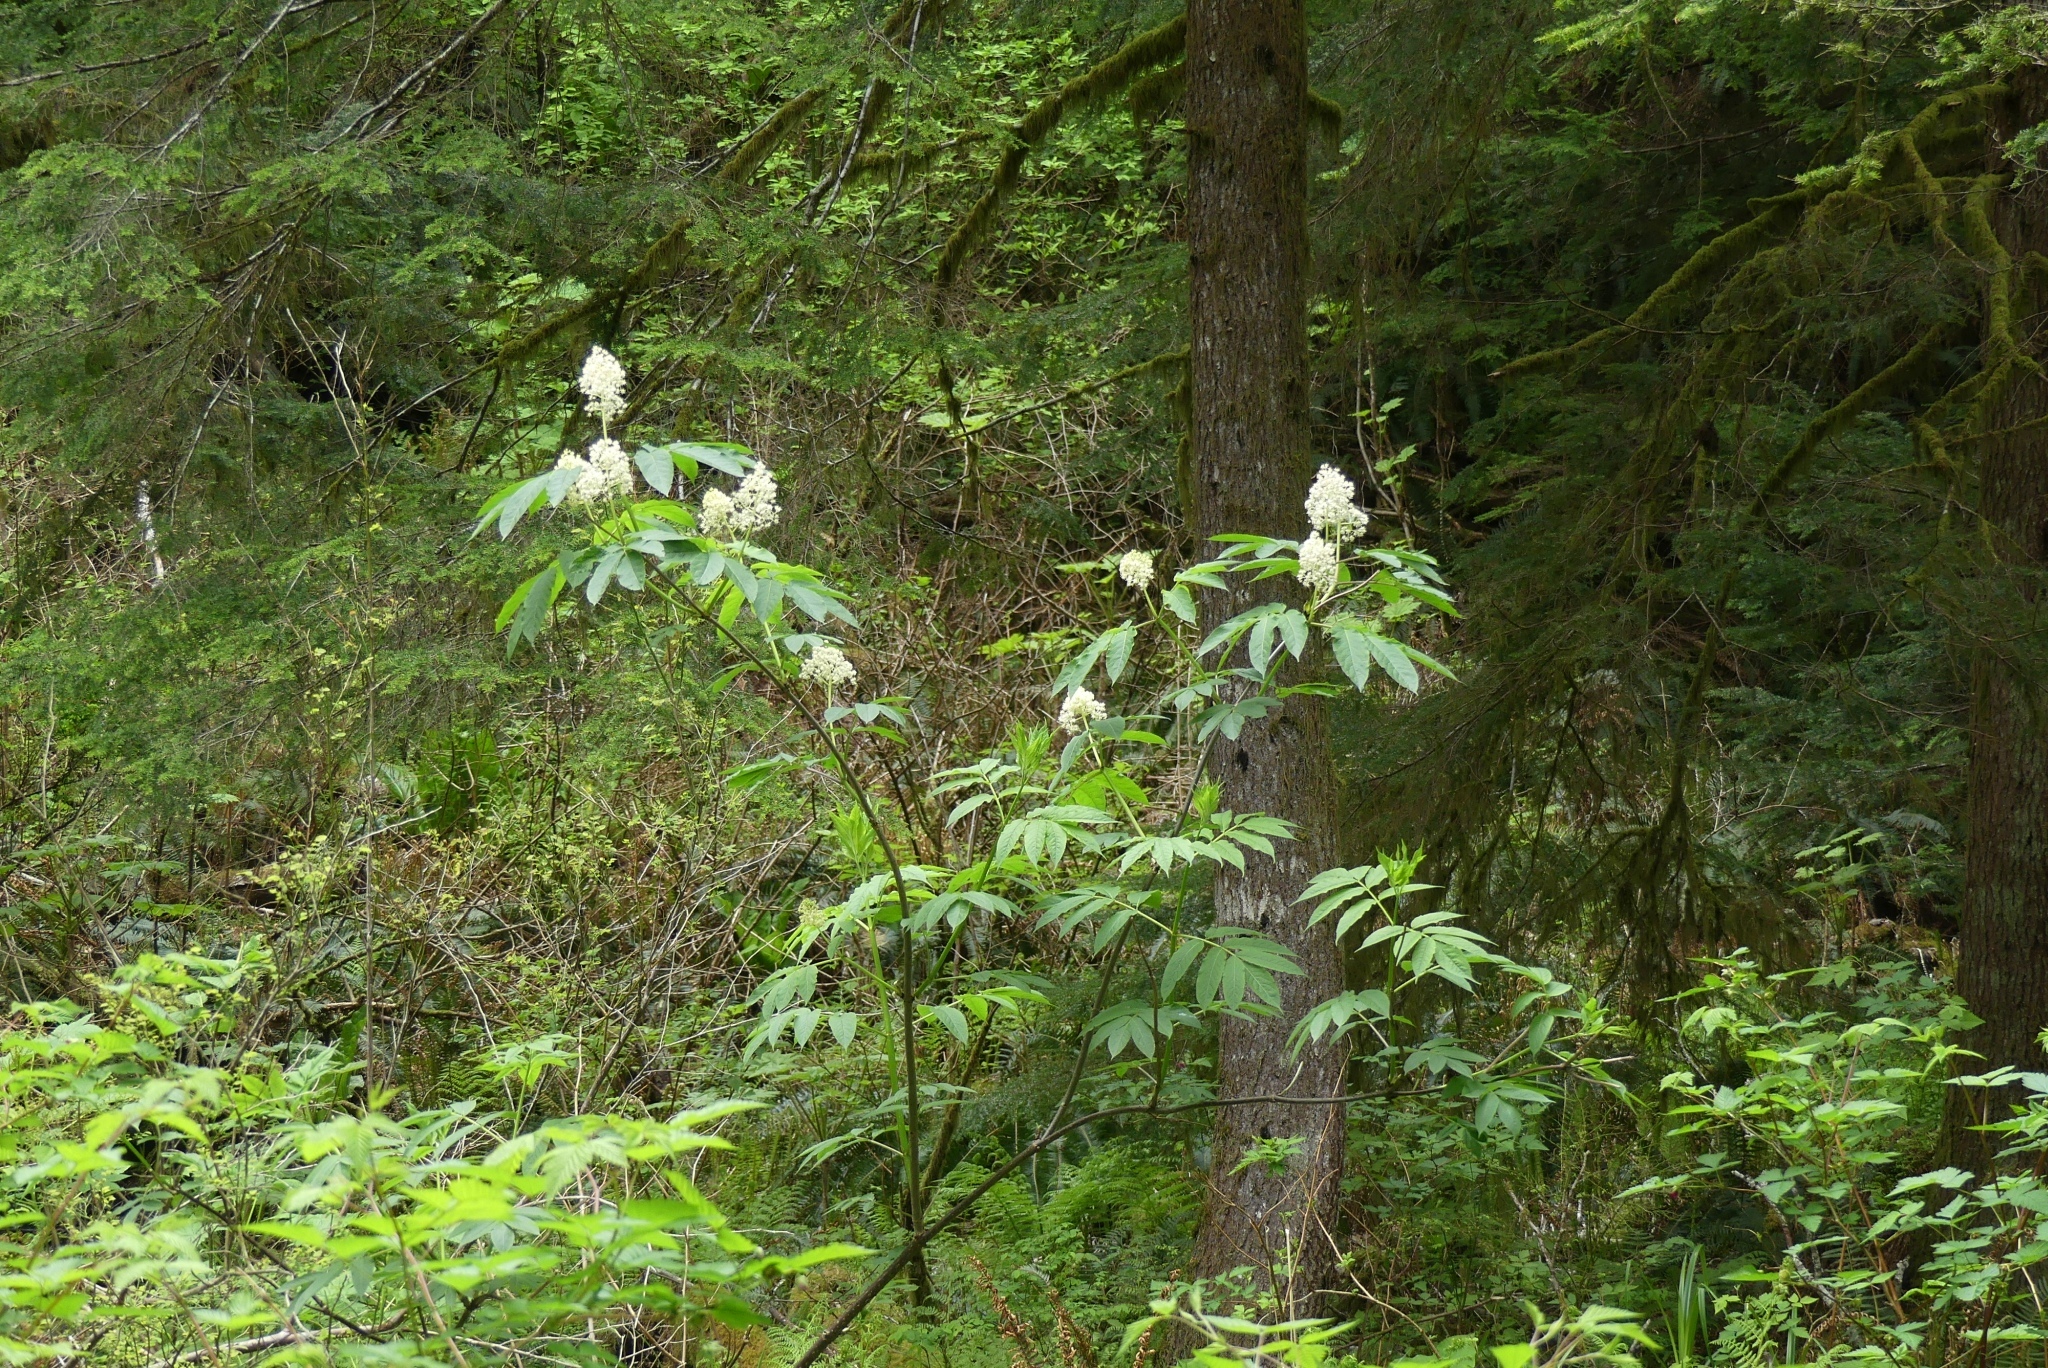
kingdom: Plantae
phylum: Tracheophyta
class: Magnoliopsida
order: Dipsacales
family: Viburnaceae
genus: Sambucus
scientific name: Sambucus racemosa
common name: Red-berried elder
